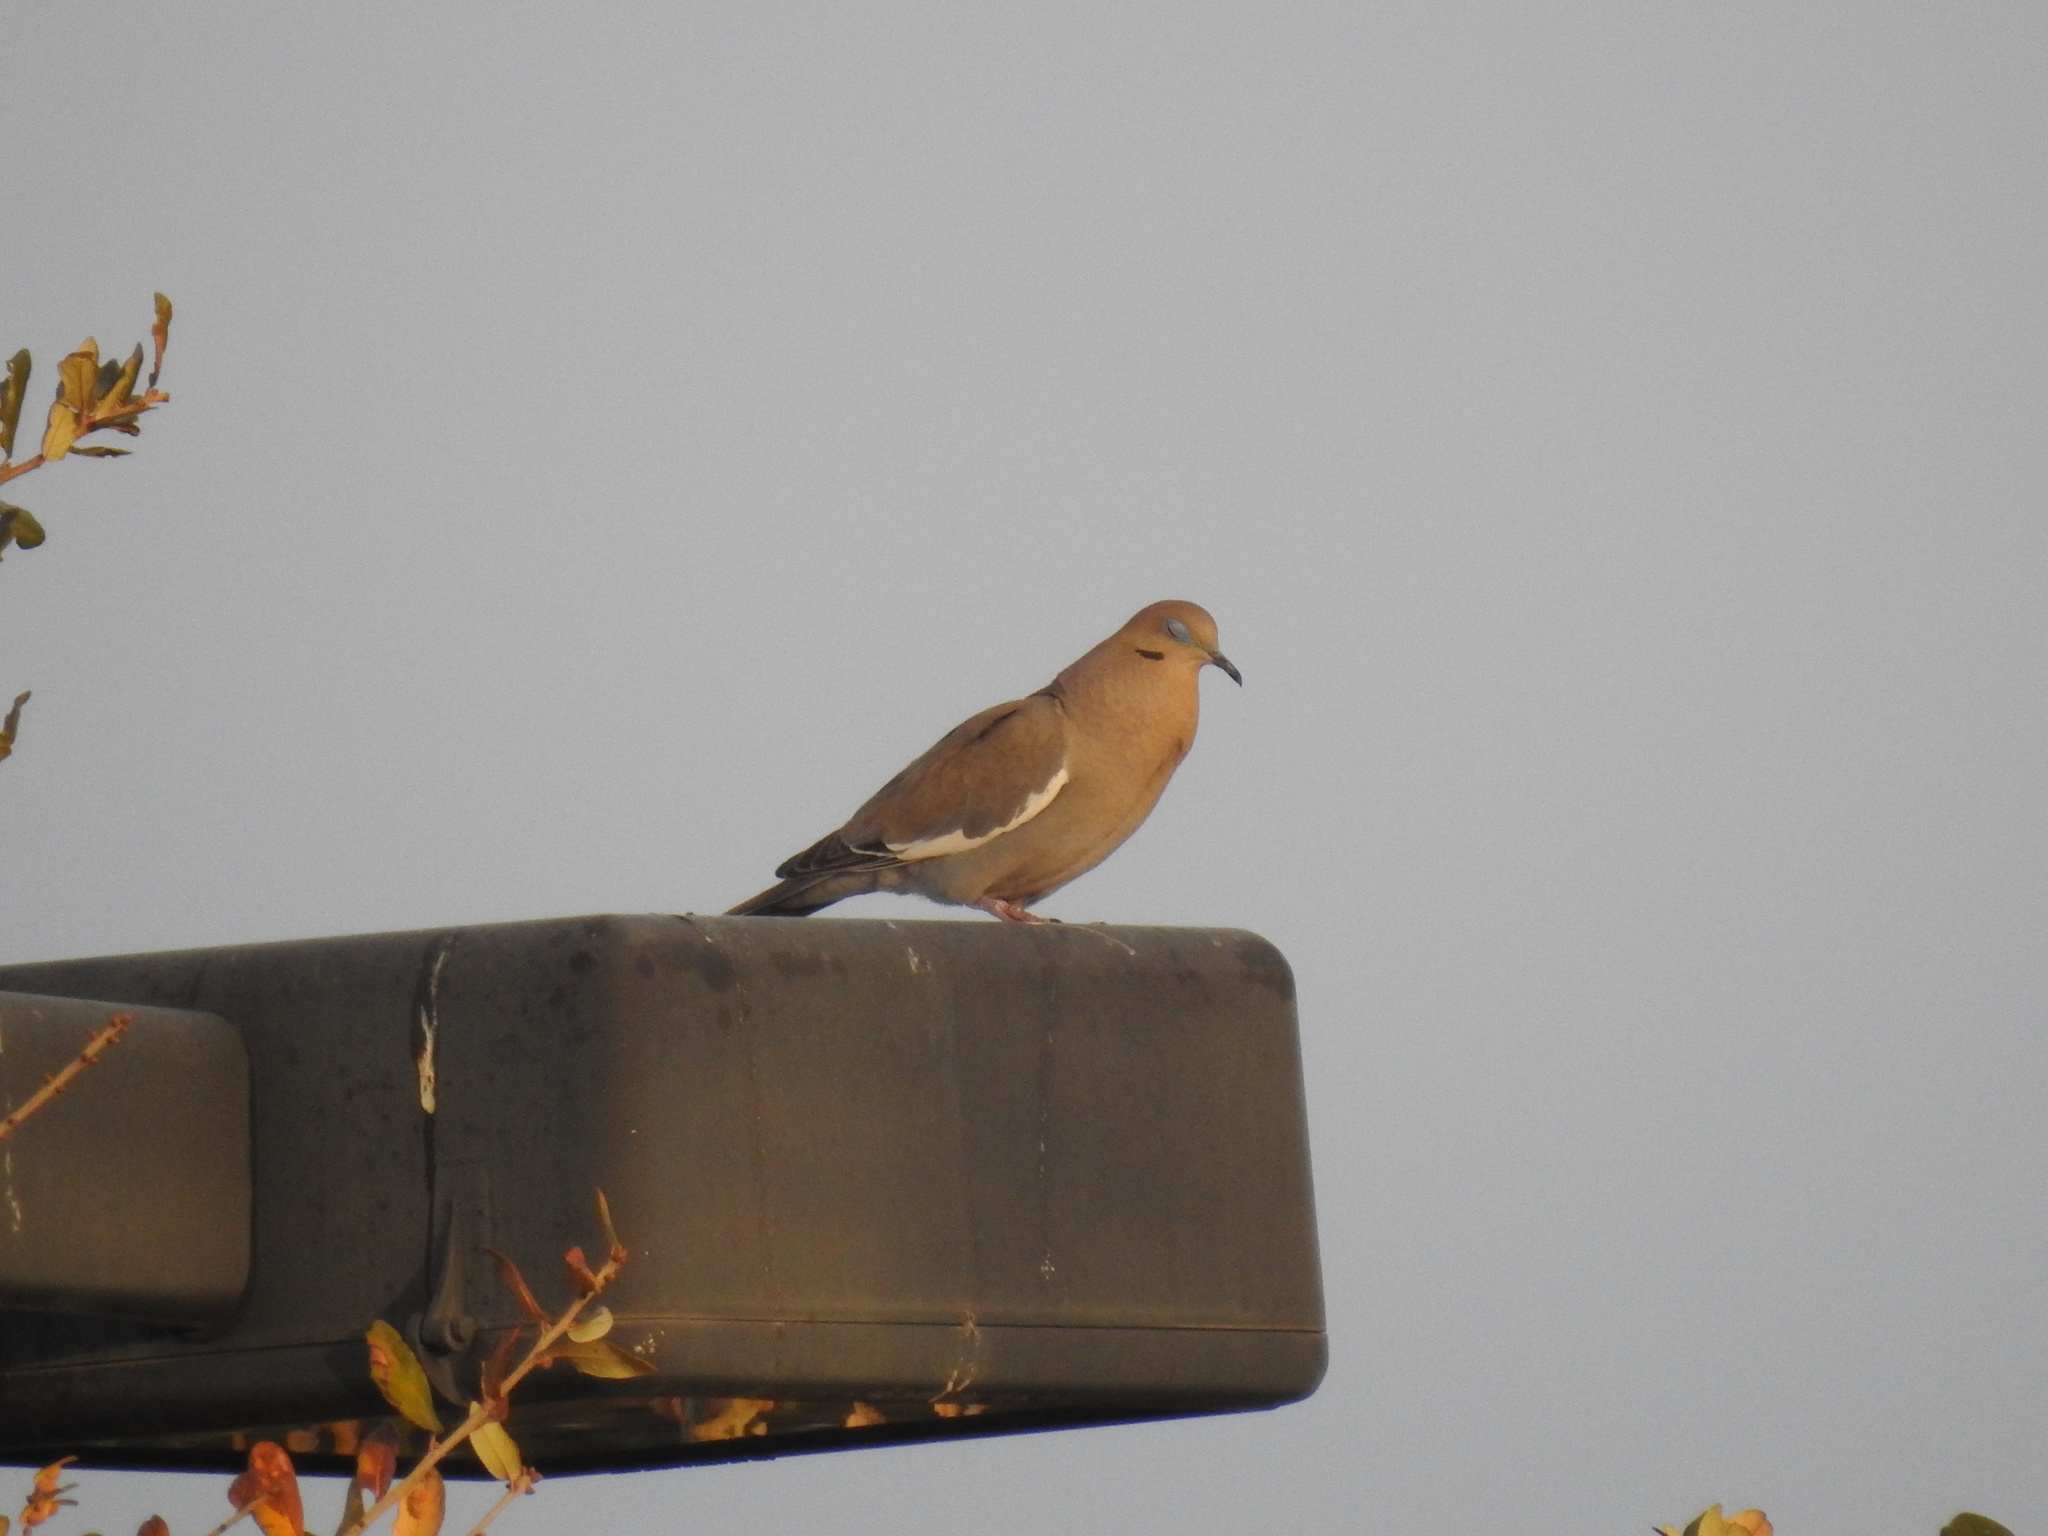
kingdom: Animalia
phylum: Chordata
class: Aves
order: Columbiformes
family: Columbidae
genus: Zenaida
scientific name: Zenaida asiatica
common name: White-winged dove
